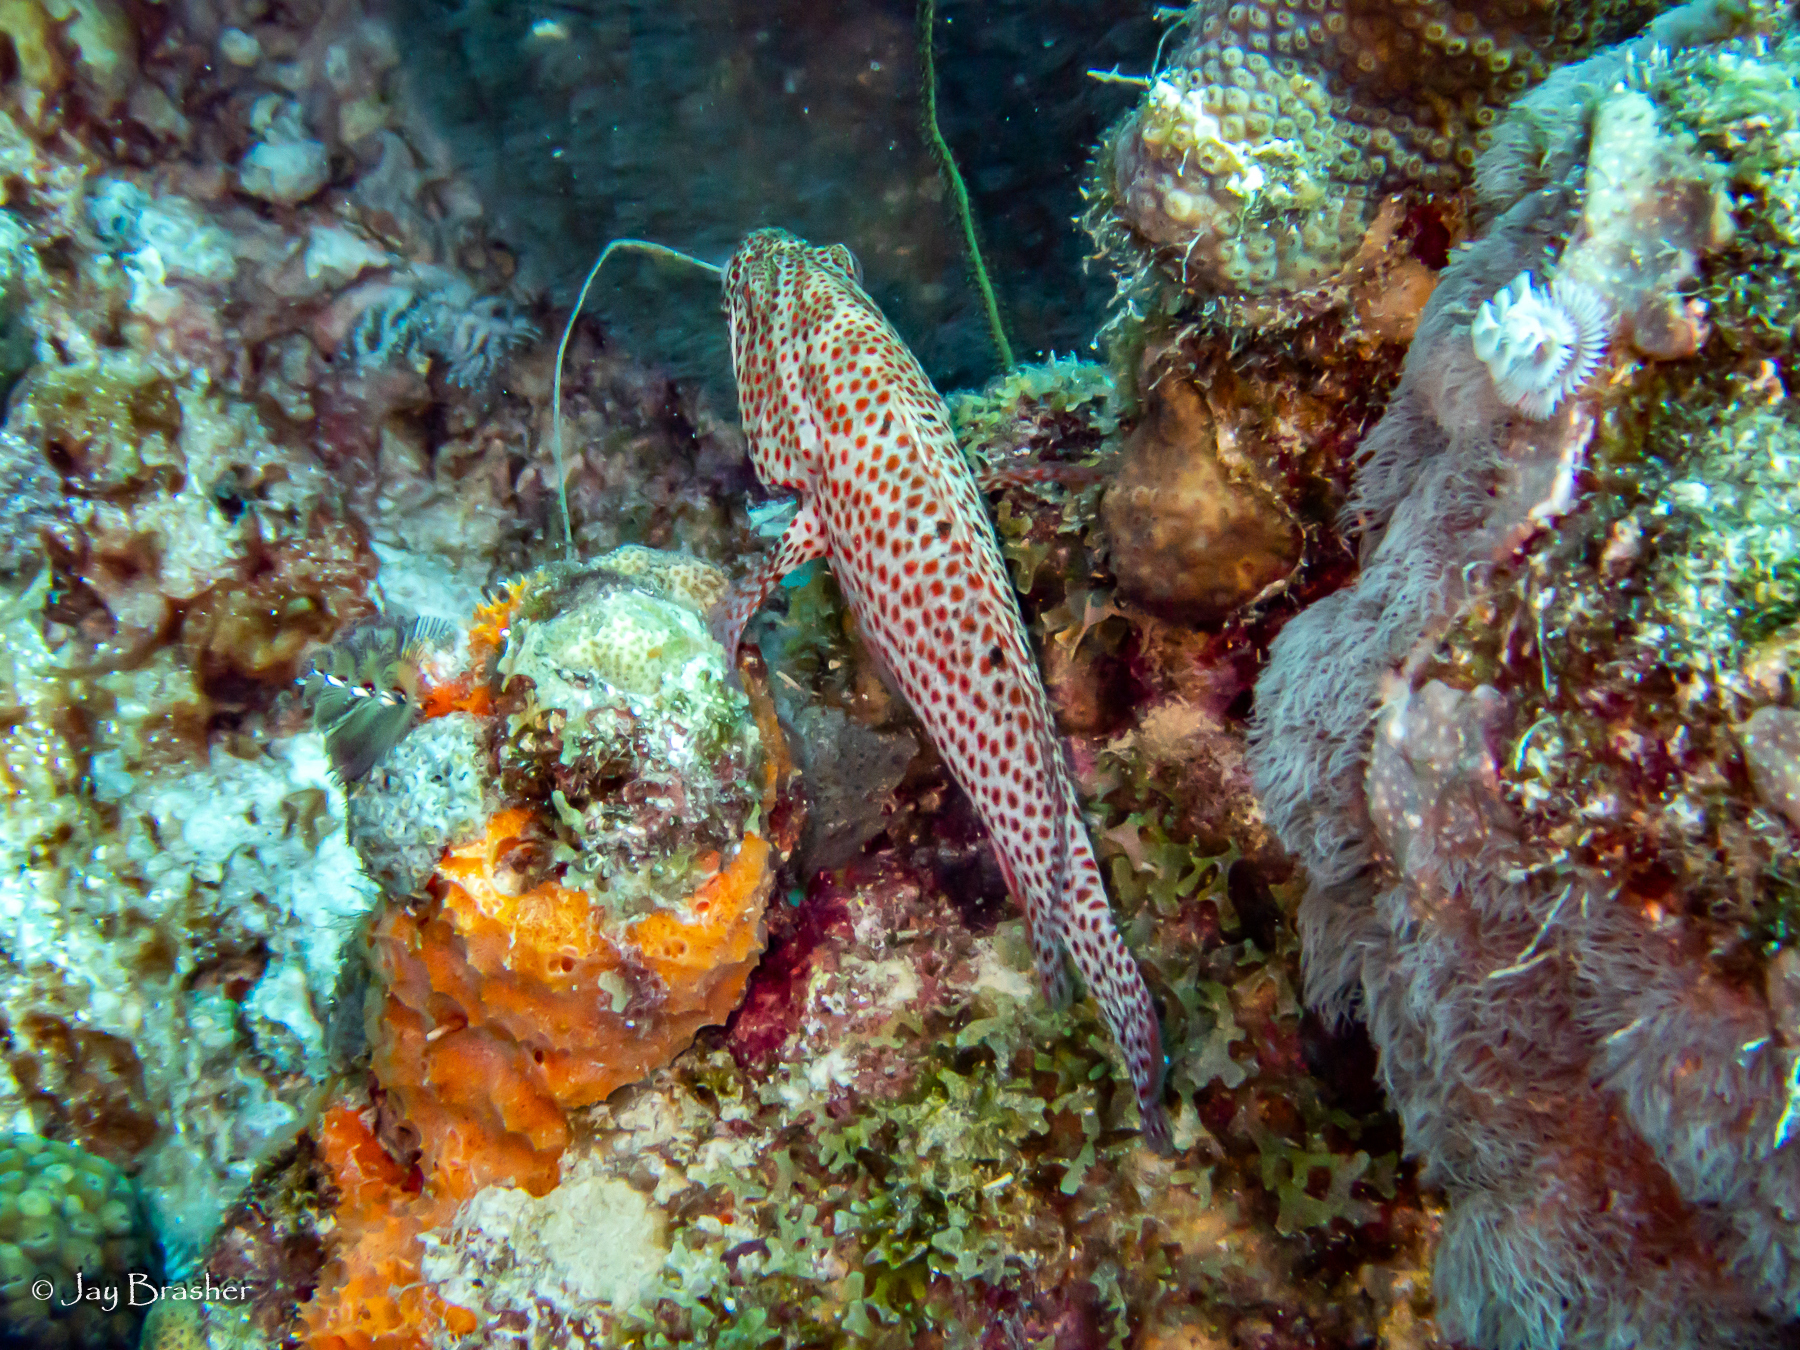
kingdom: Animalia
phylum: Porifera
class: Demospongiae
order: Scopalinida
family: Scopalinidae
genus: Scopalina
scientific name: Scopalina ruetzleri
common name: Orange lumpy encrusting sponge
